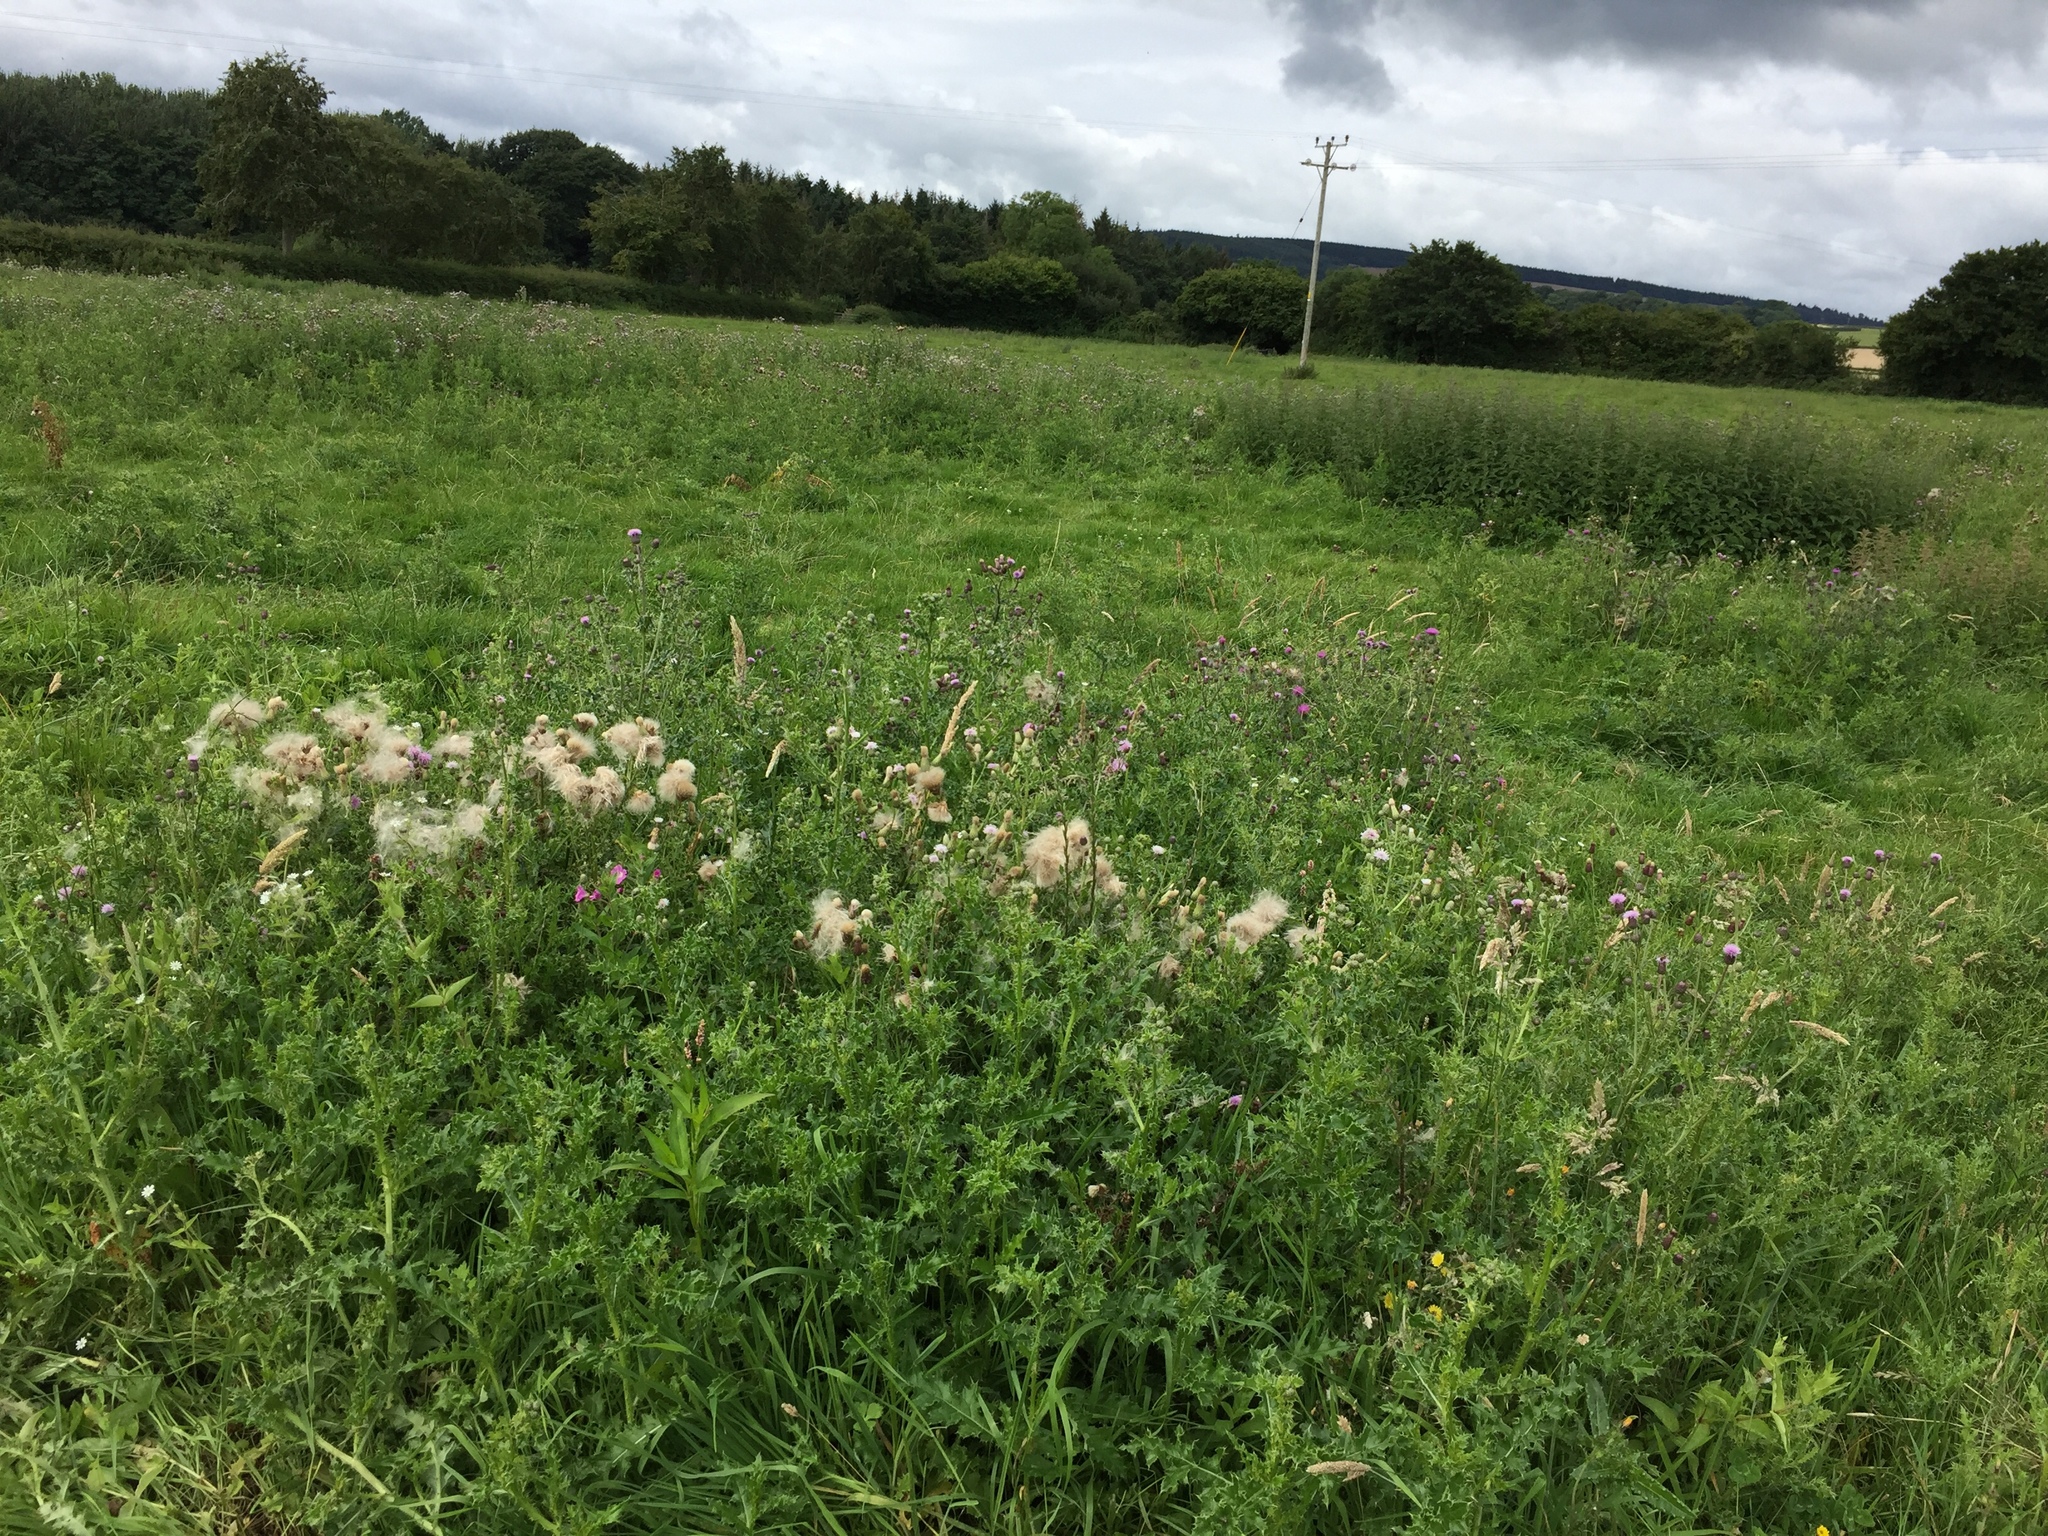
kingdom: Plantae
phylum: Tracheophyta
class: Magnoliopsida
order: Asterales
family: Asteraceae
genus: Cirsium
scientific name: Cirsium arvense
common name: Creeping thistle
